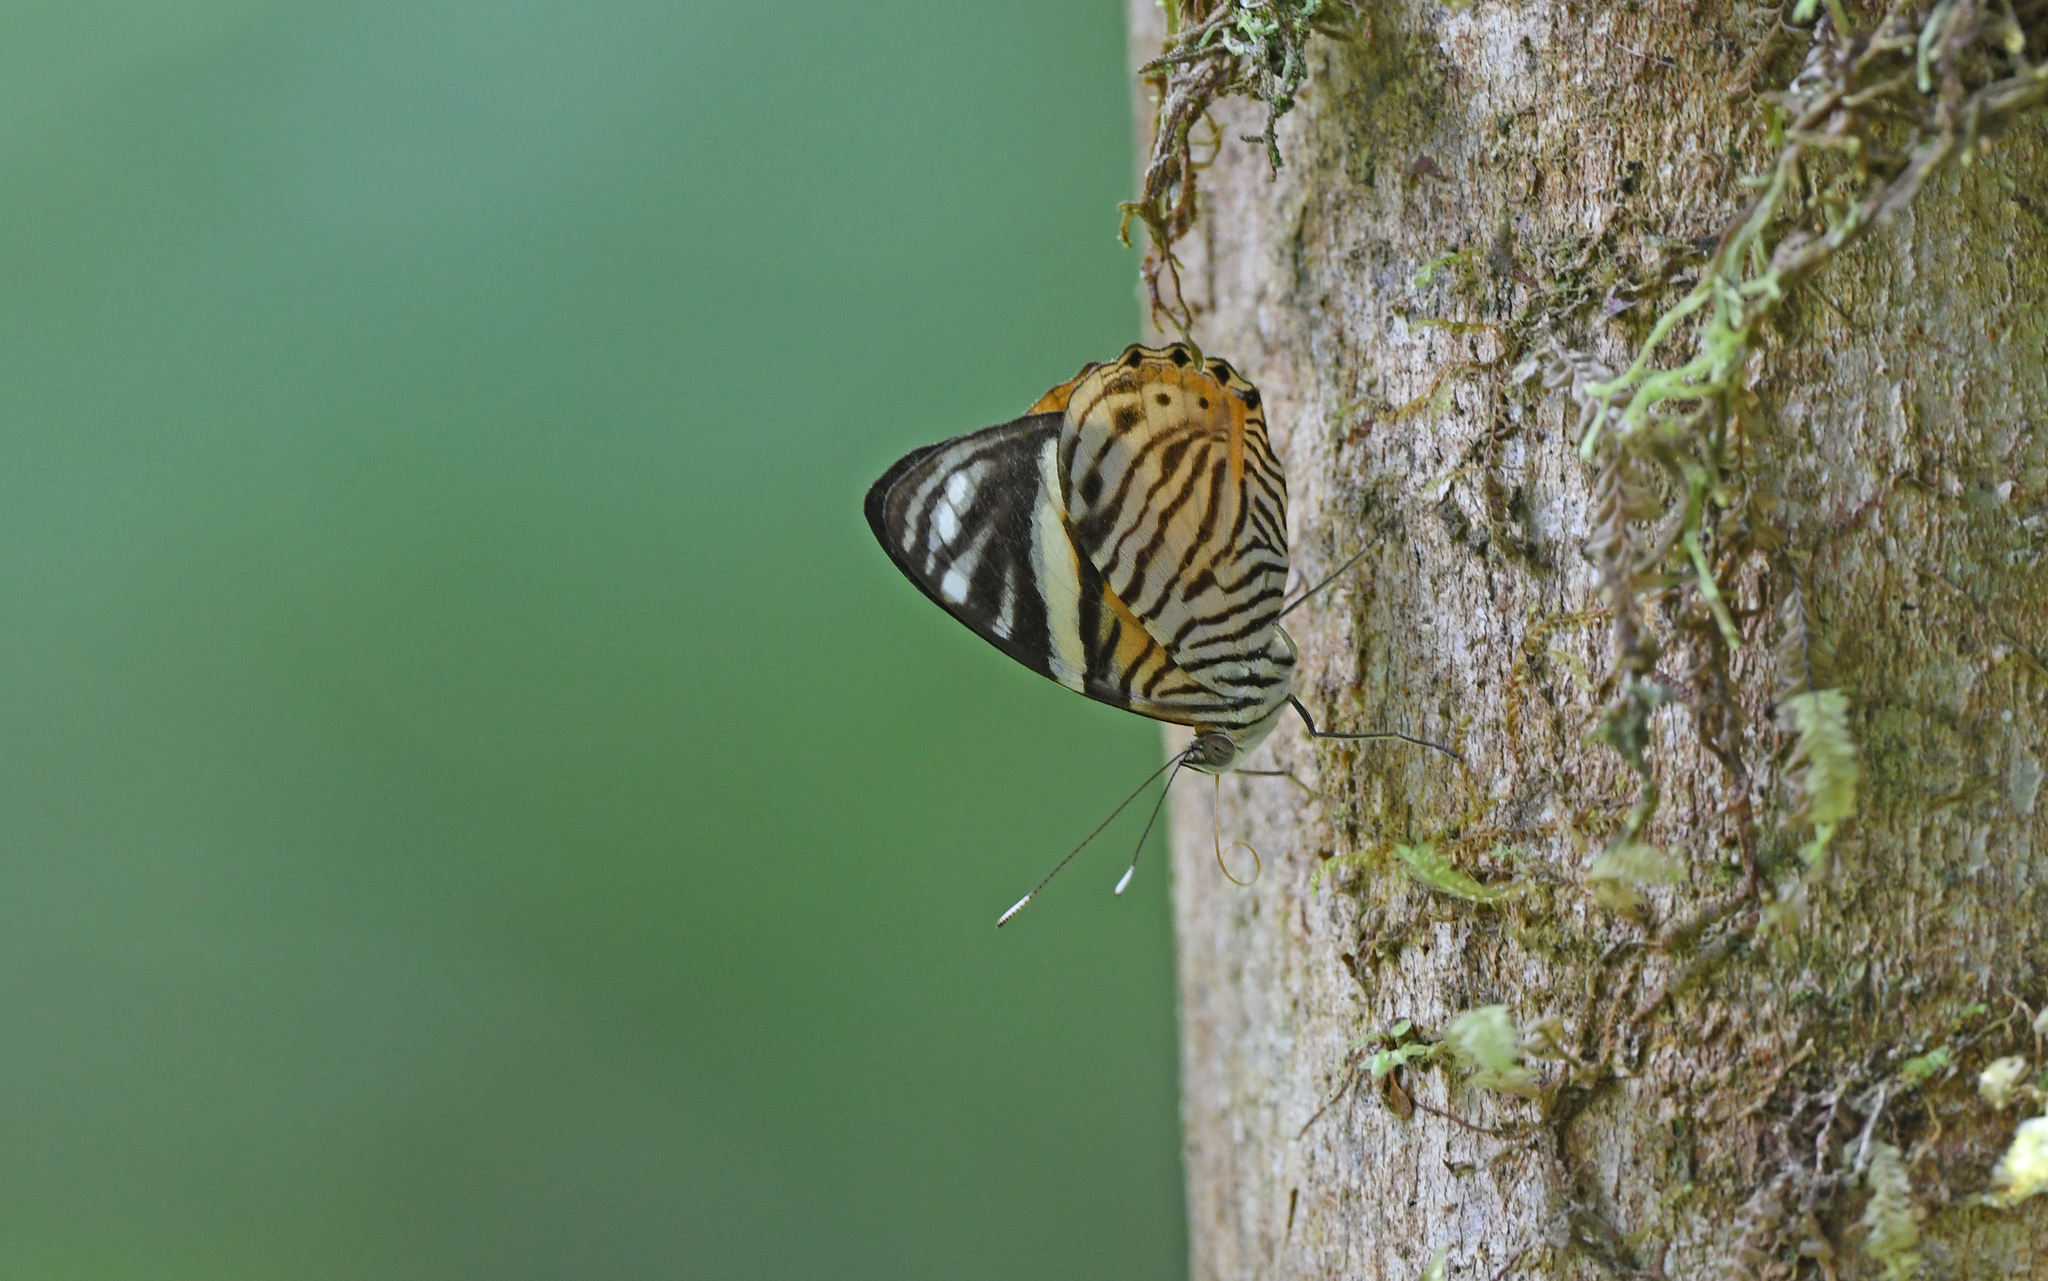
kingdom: Animalia
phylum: Arthropoda
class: Insecta
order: Lepidoptera
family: Nymphalidae
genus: Callizona
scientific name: Callizona acesta
